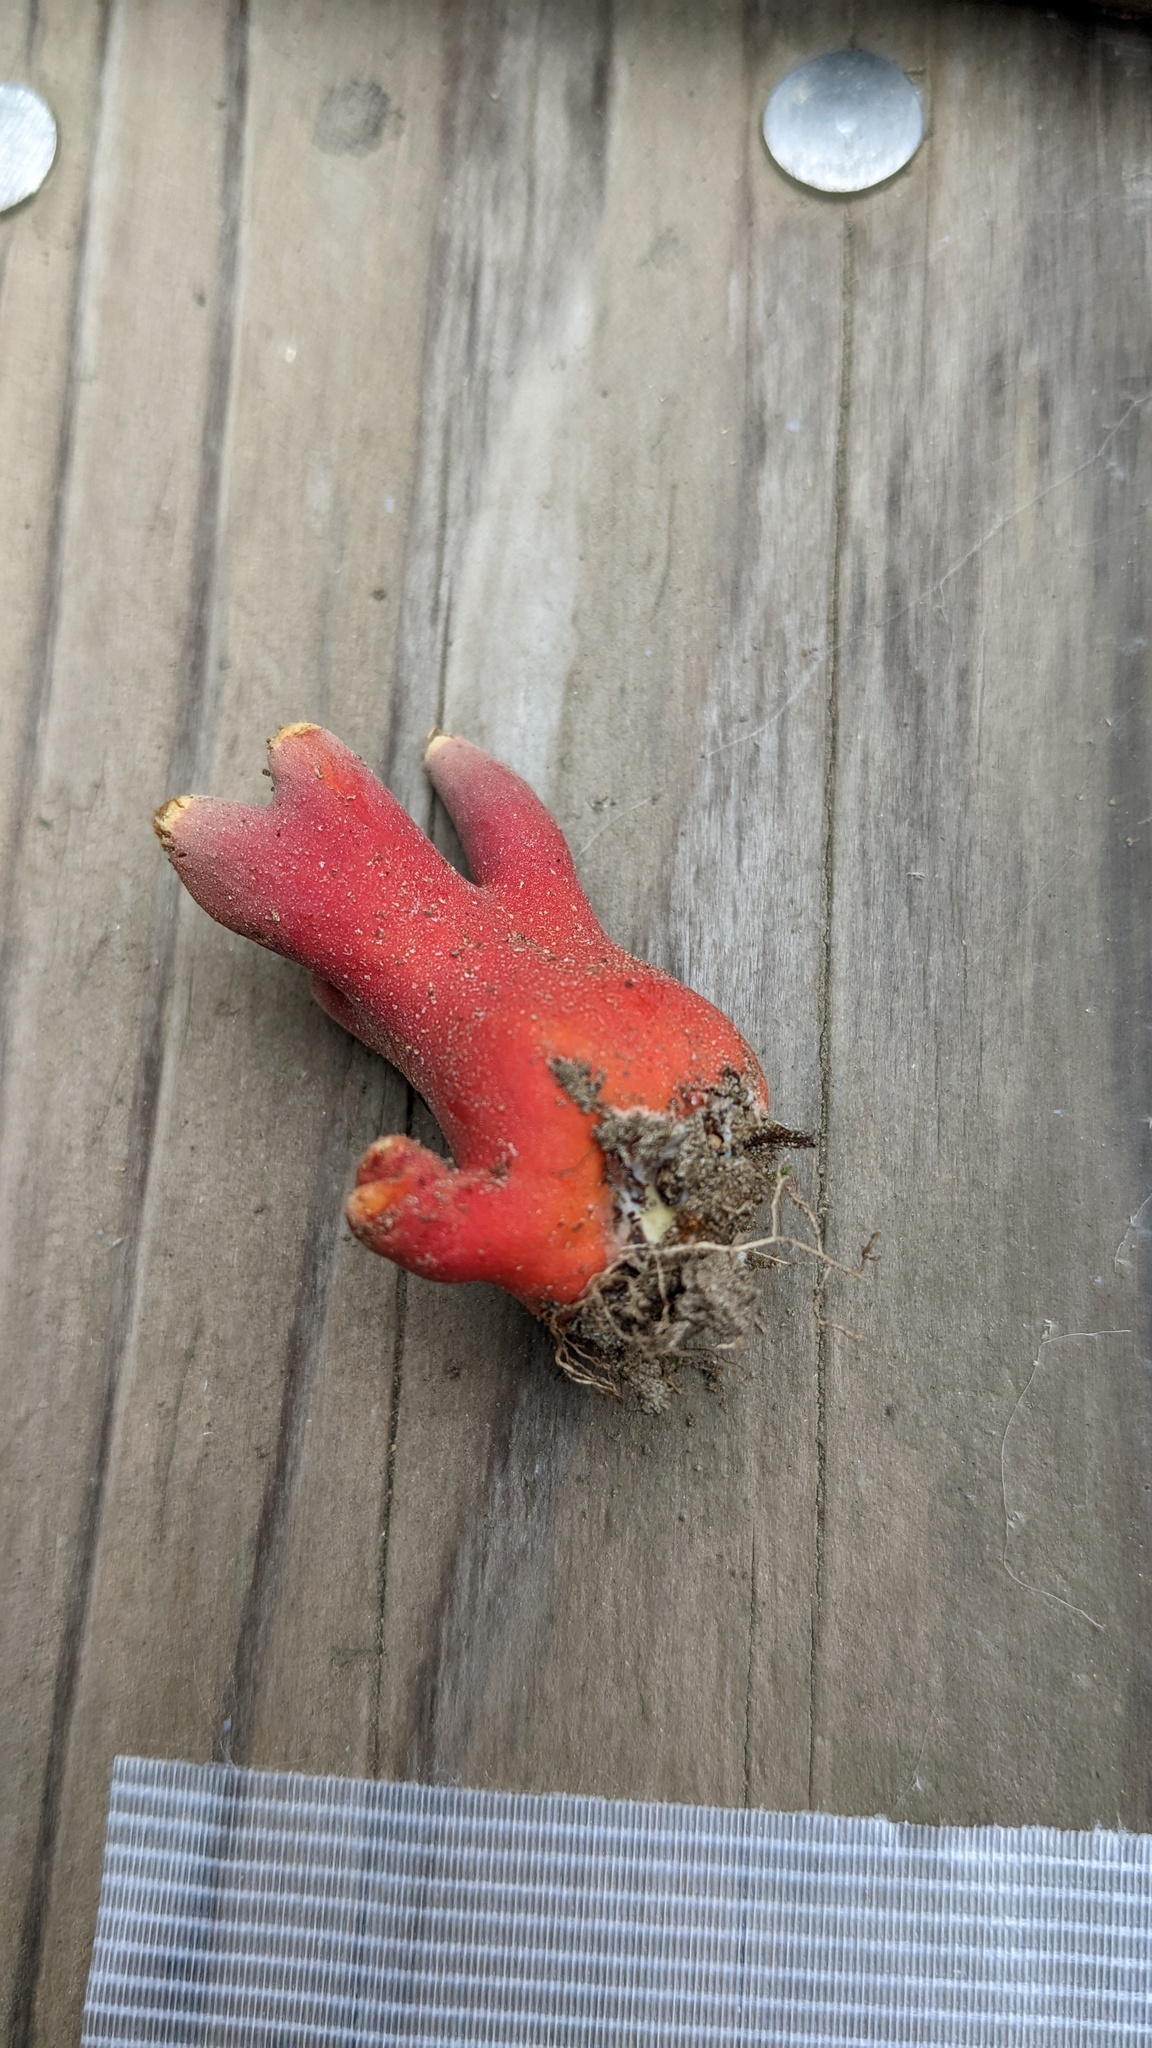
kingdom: Fungi
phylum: Ascomycota
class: Sordariomycetes
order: Hypocreales
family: Hypocreaceae
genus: Trichoderma
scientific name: Trichoderma cornu-damae
